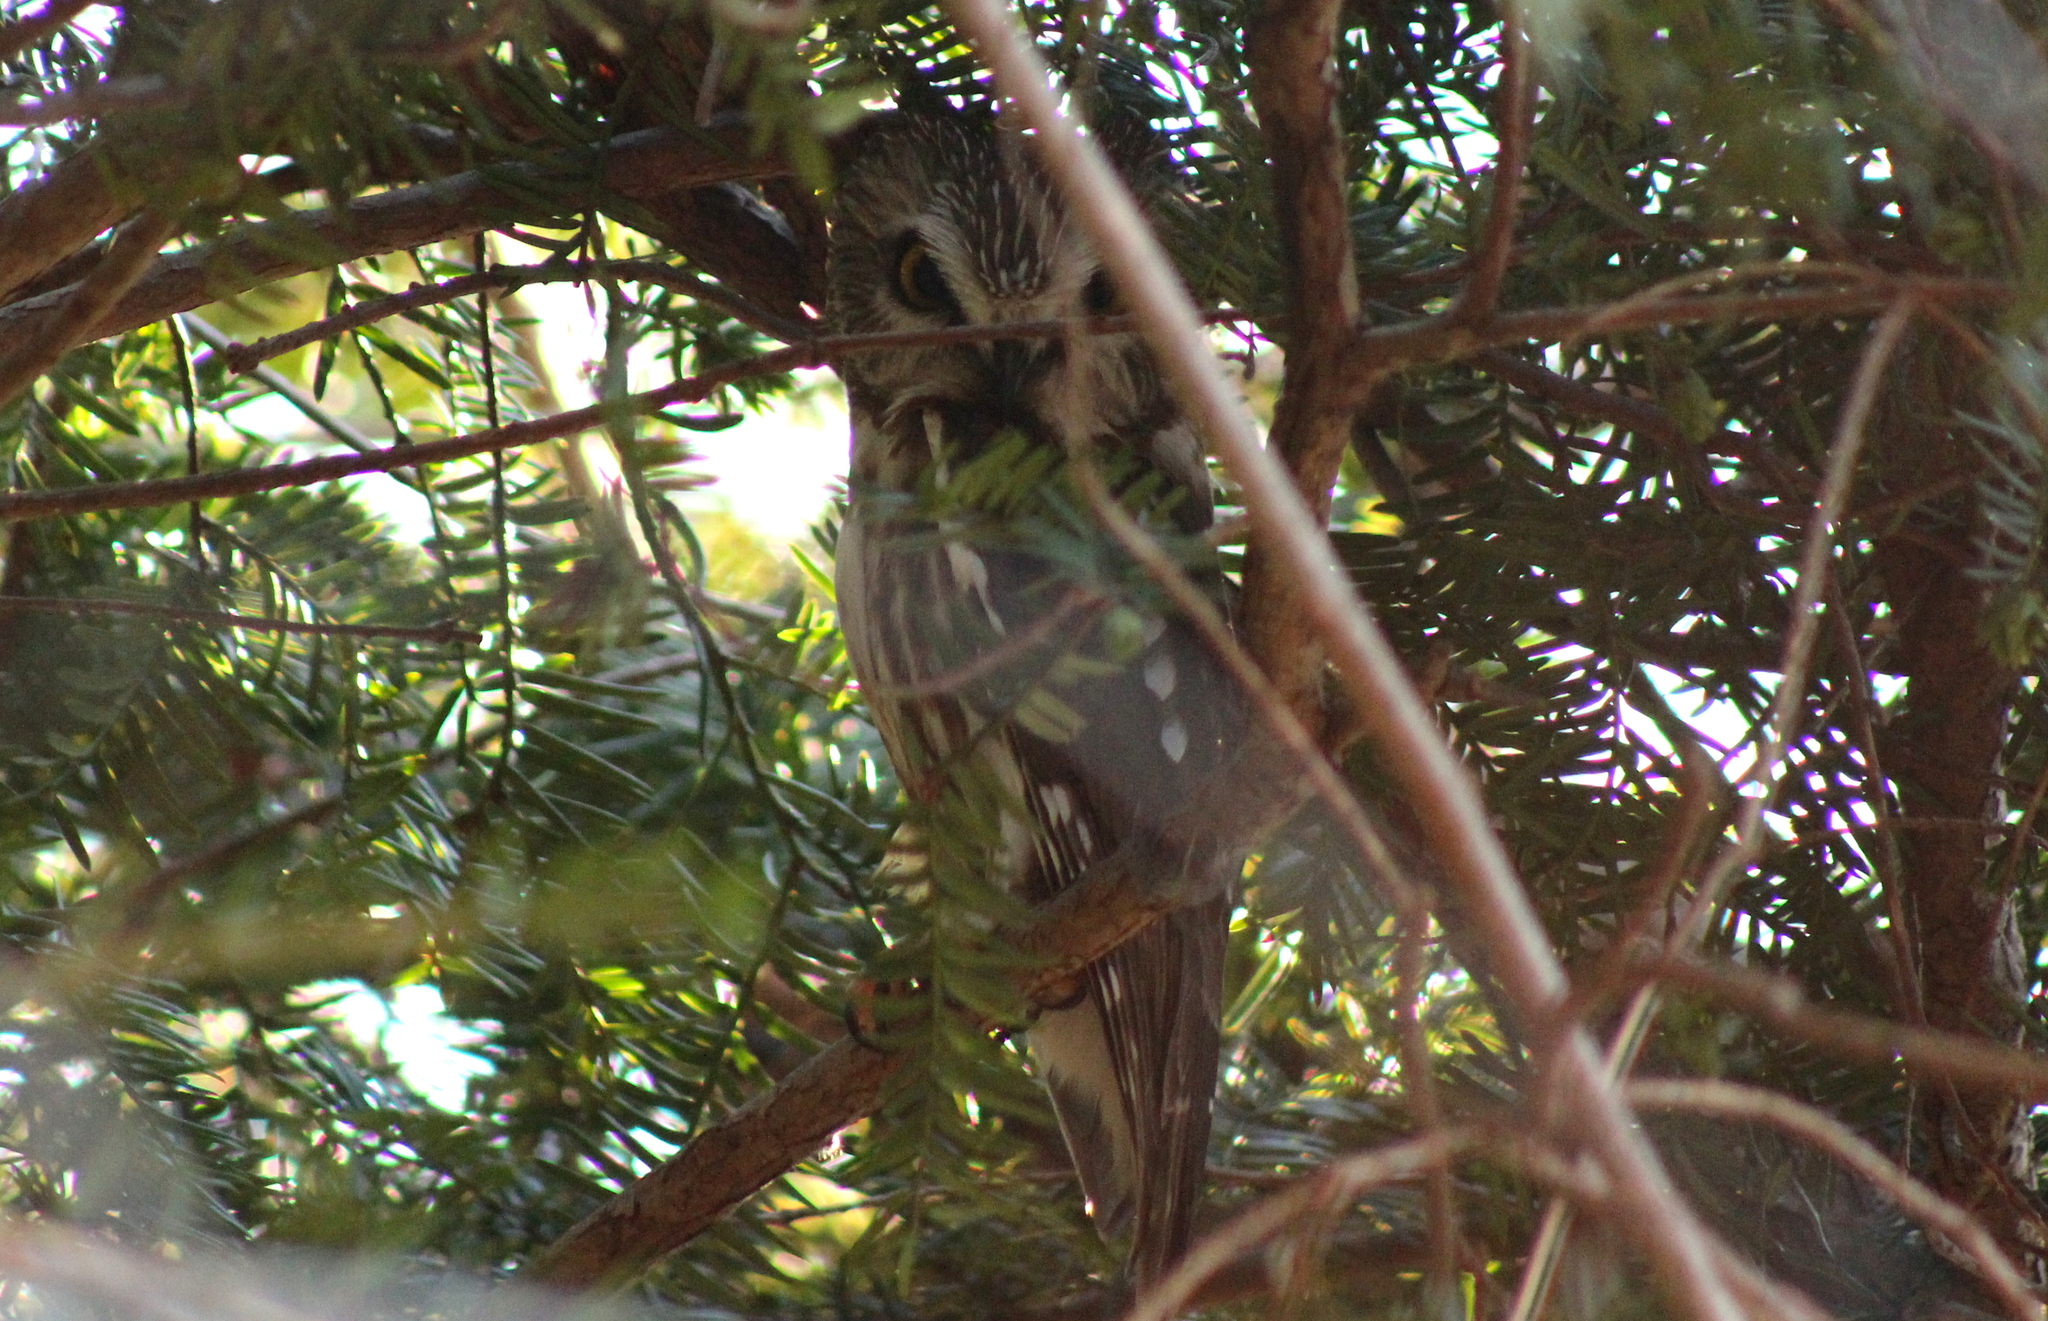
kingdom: Animalia
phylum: Chordata
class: Aves
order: Strigiformes
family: Strigidae
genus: Aegolius
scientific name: Aegolius acadicus
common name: Northern saw-whet owl
